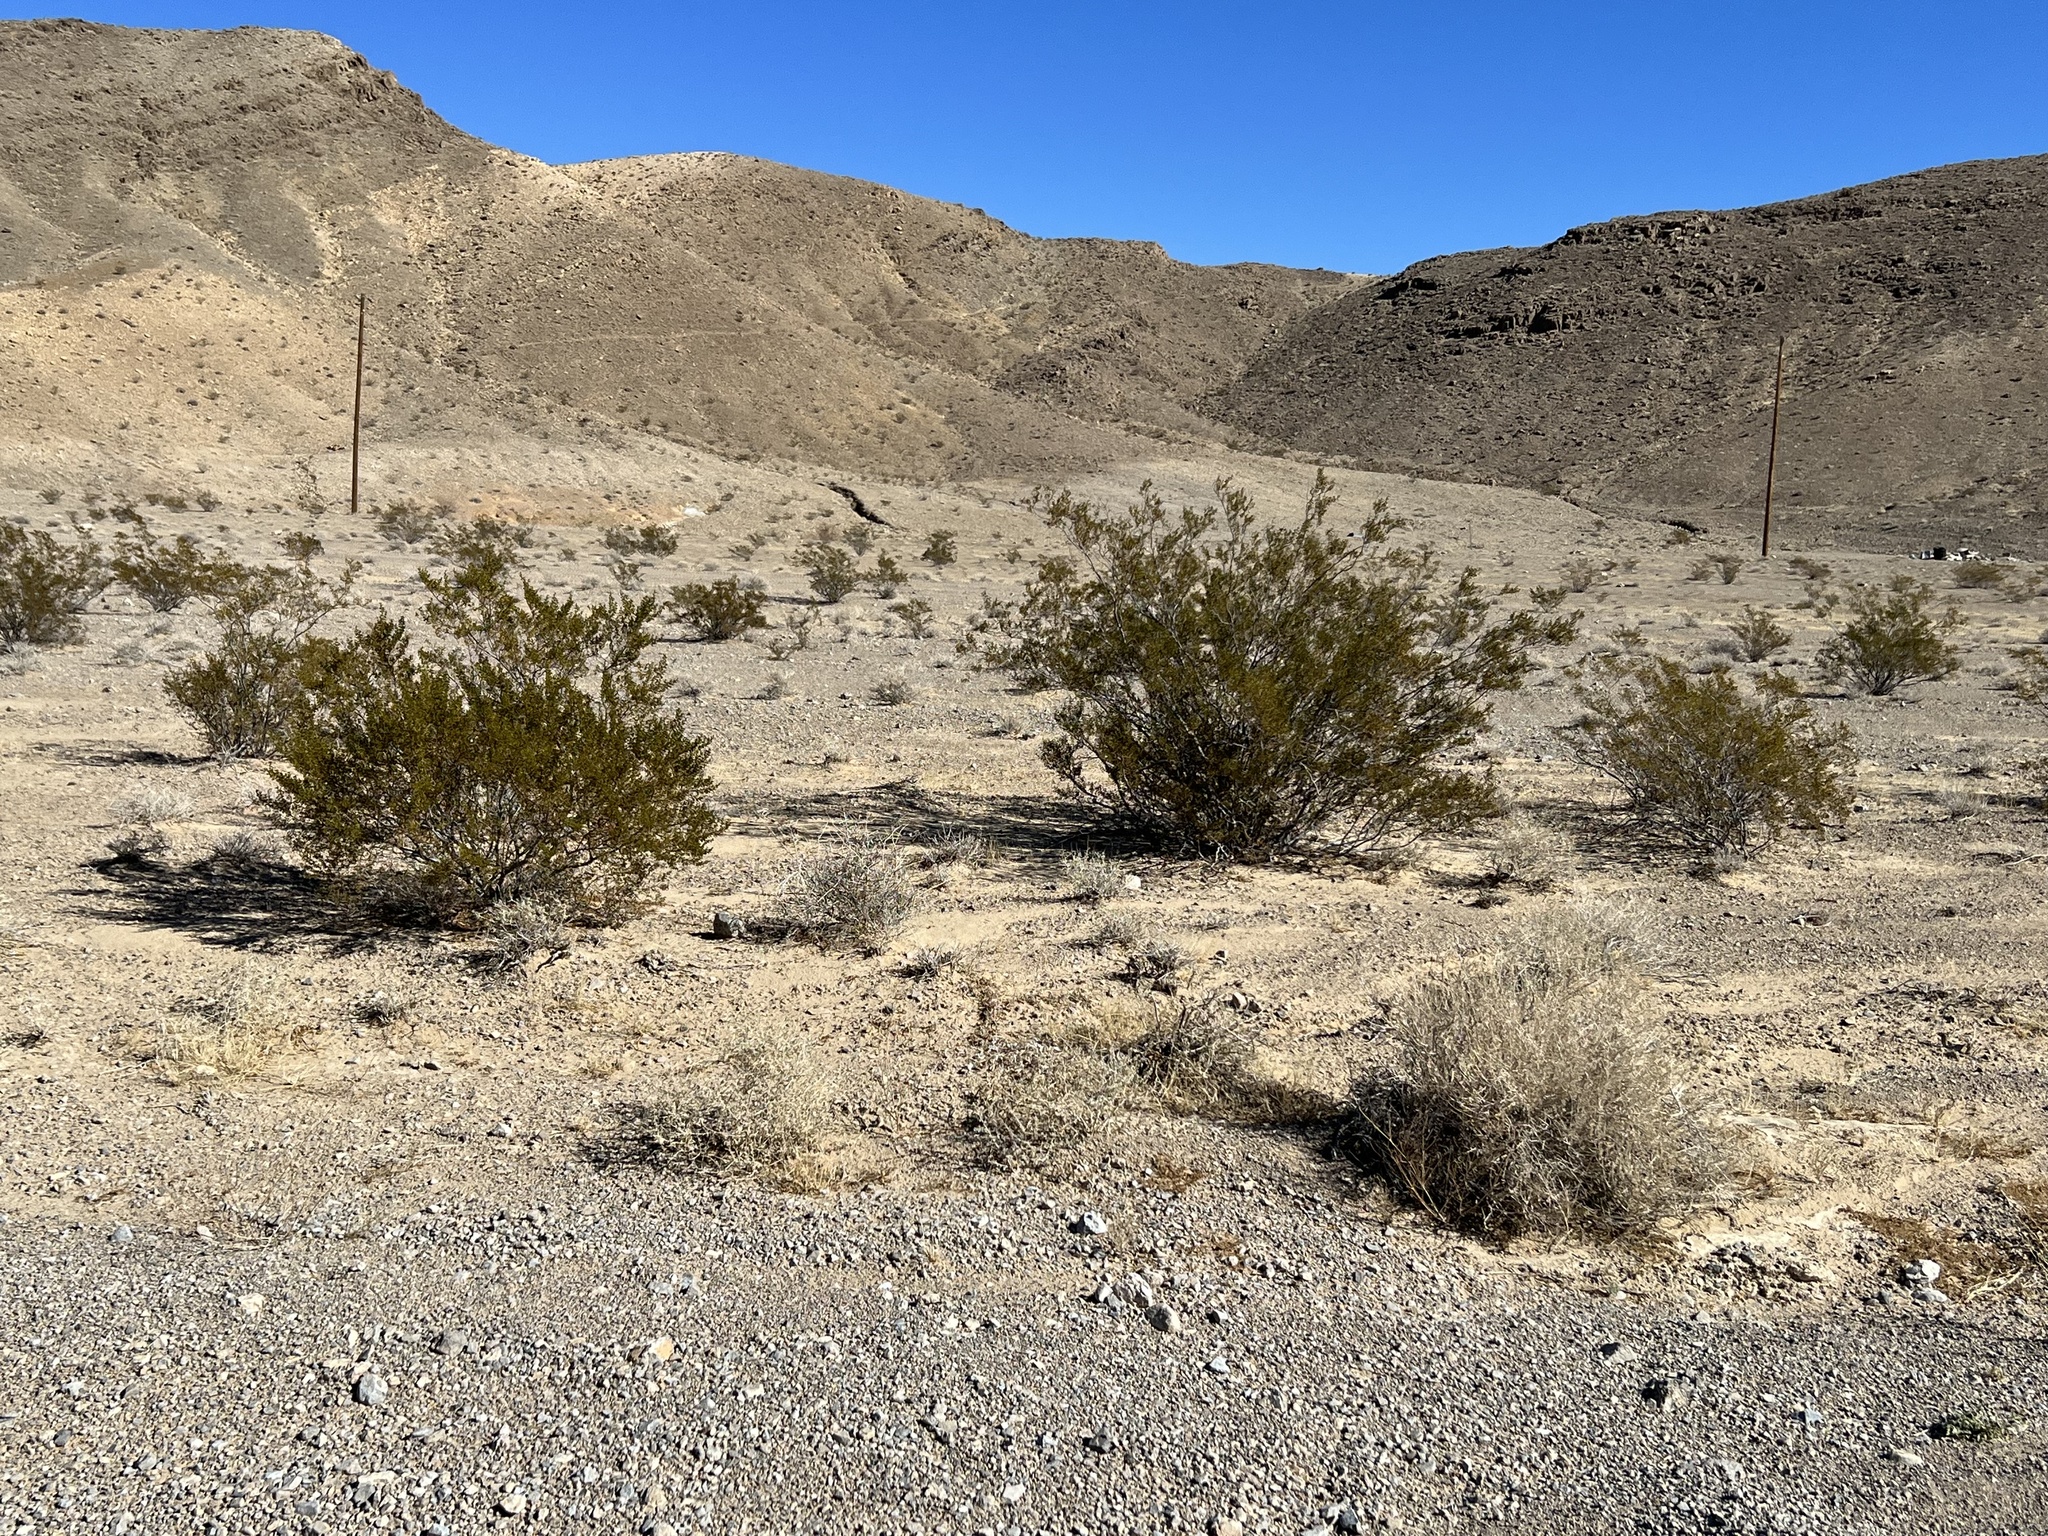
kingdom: Plantae
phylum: Tracheophyta
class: Magnoliopsida
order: Zygophyllales
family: Zygophyllaceae
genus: Larrea
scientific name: Larrea tridentata
